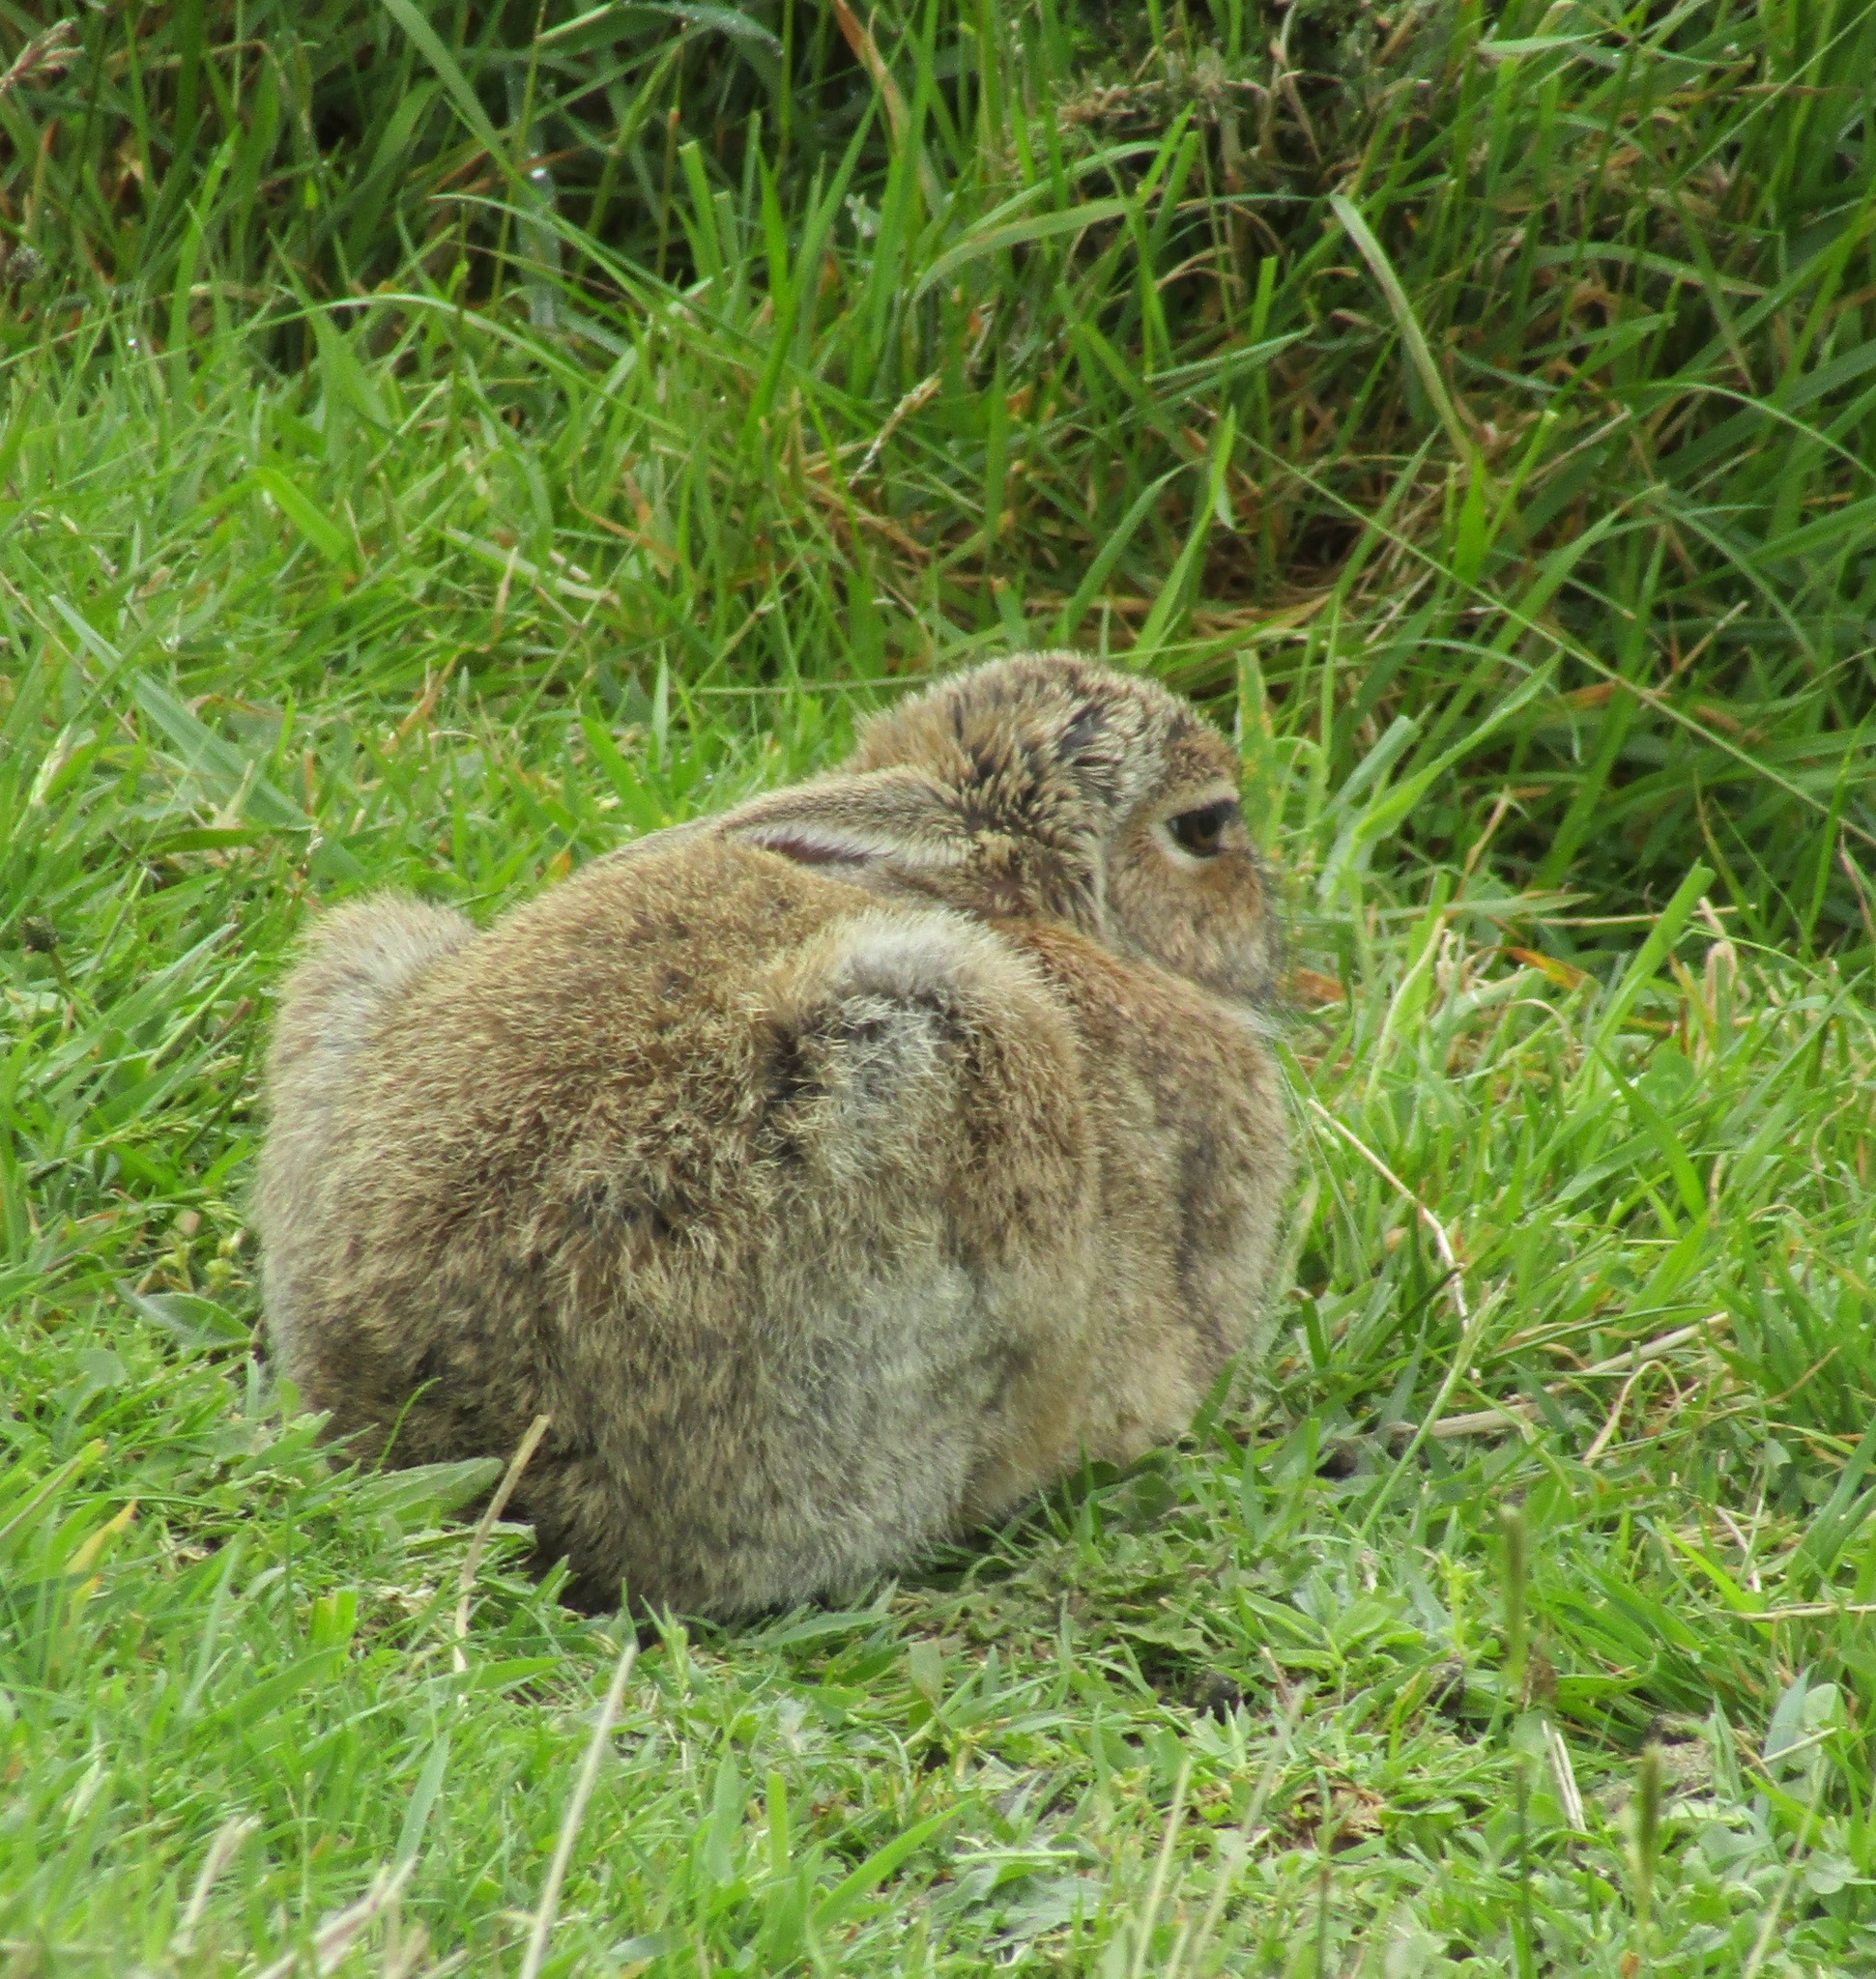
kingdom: Animalia
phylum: Chordata
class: Mammalia
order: Lagomorpha
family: Leporidae
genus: Oryctolagus
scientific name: Oryctolagus cuniculus
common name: European rabbit
